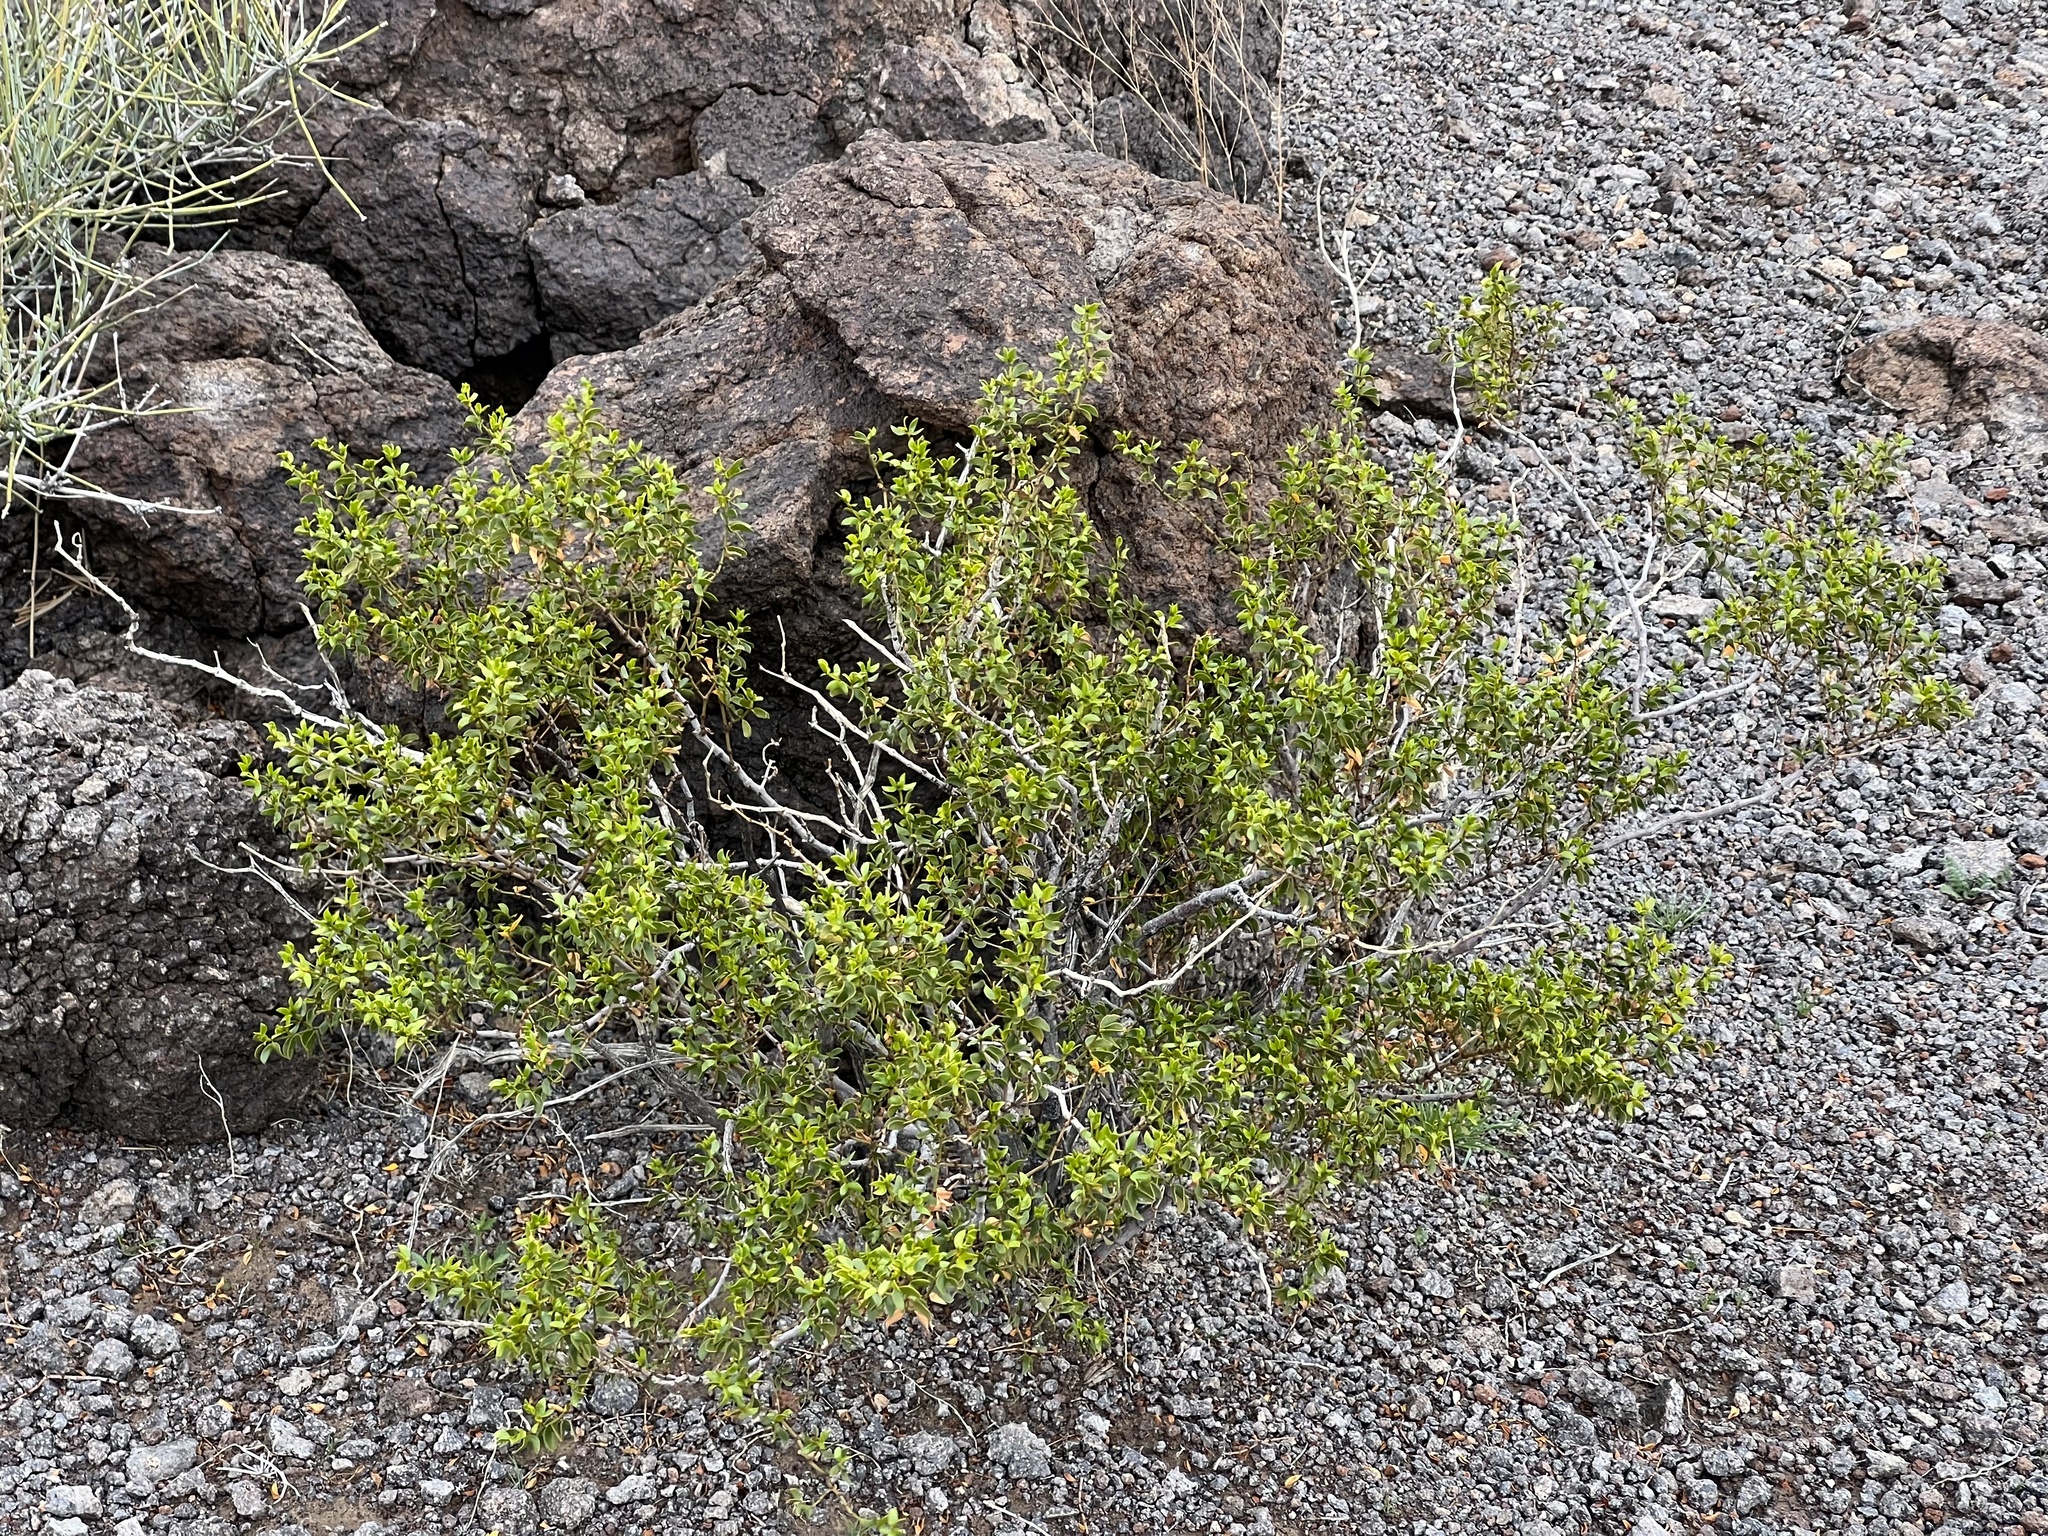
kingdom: Plantae
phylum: Tracheophyta
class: Magnoliopsida
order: Zygophyllales
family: Zygophyllaceae
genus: Larrea
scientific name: Larrea tridentata
